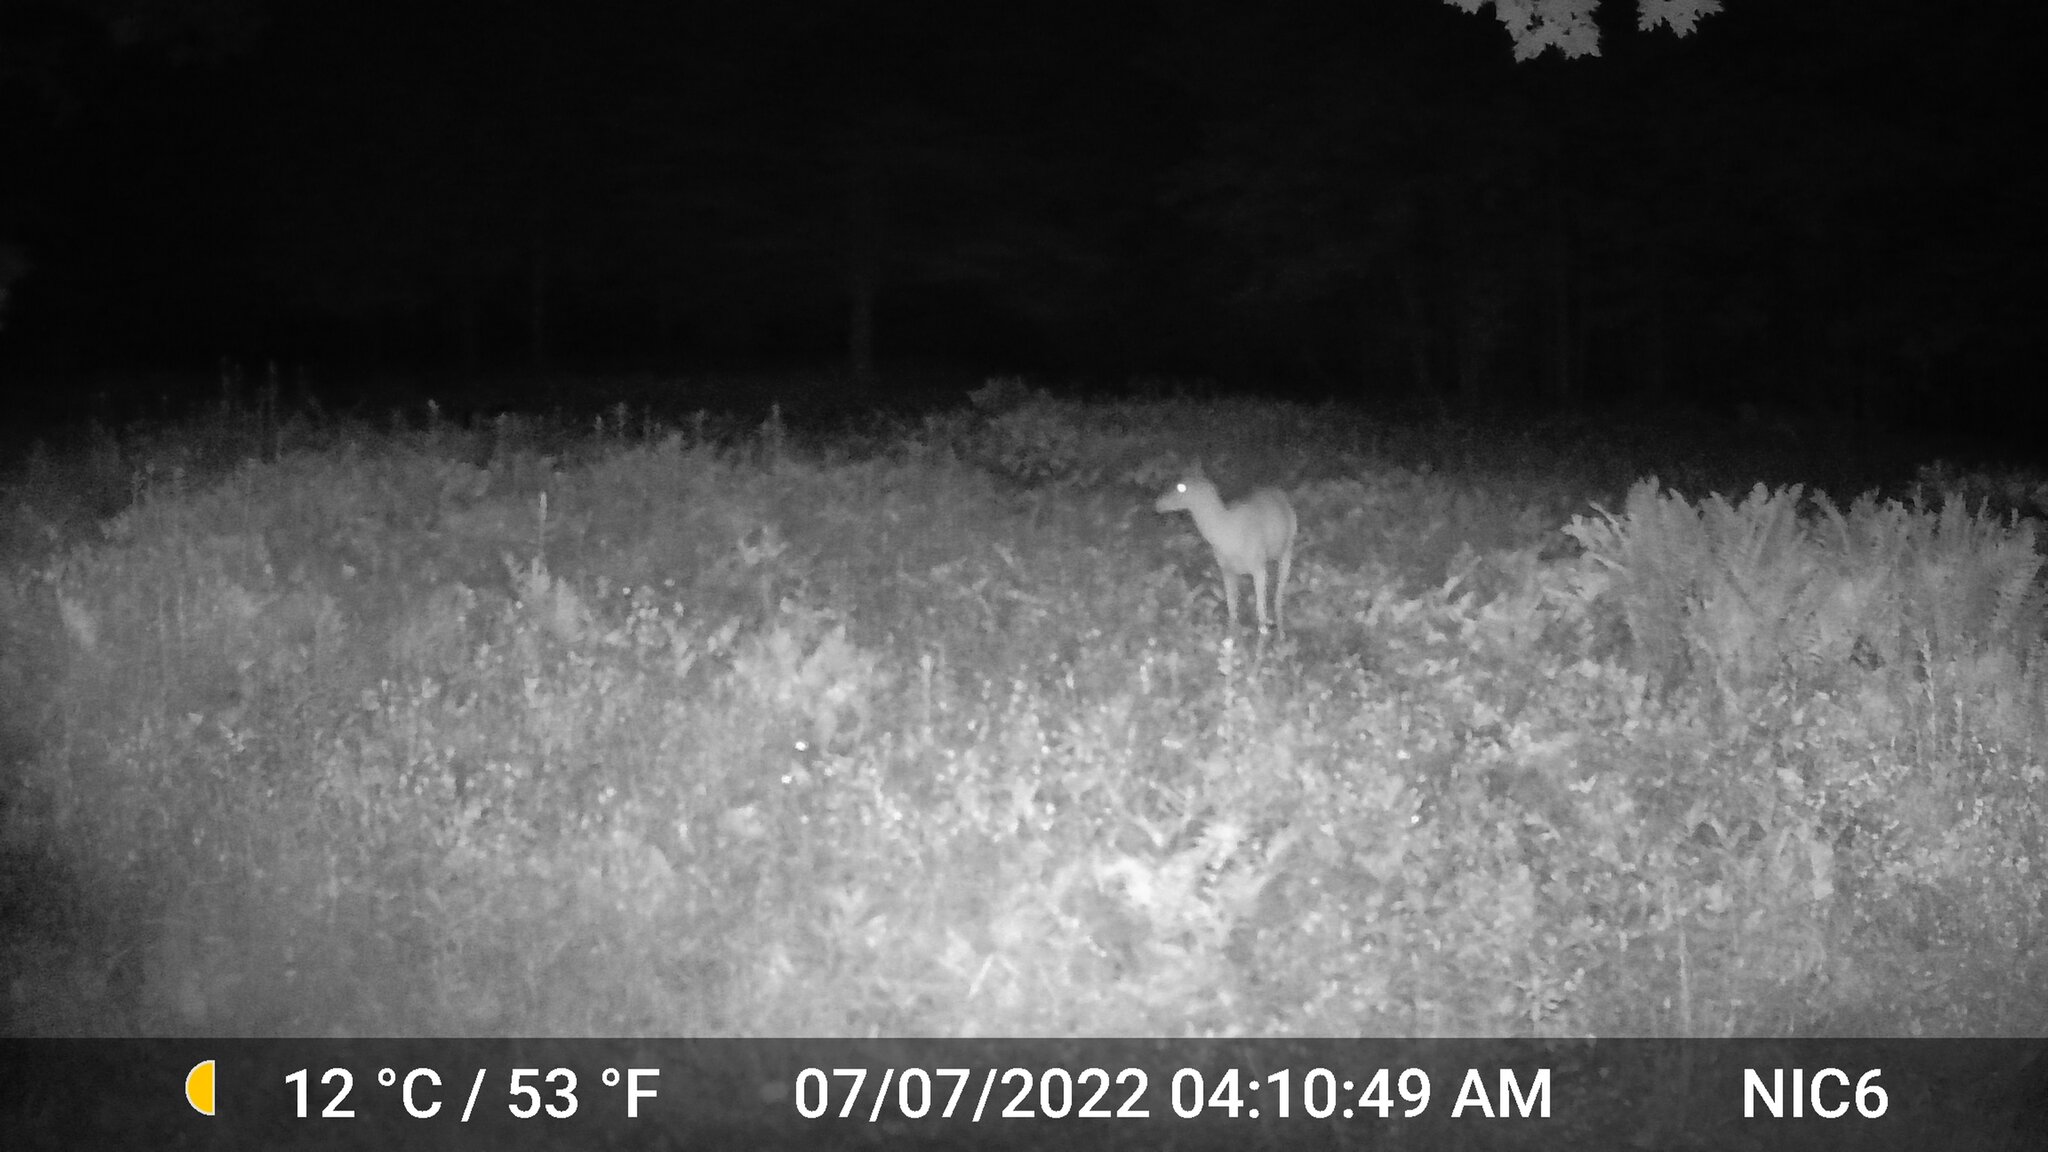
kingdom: Animalia
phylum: Chordata
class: Mammalia
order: Artiodactyla
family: Cervidae
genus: Odocoileus
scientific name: Odocoileus virginianus
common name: White-tailed deer
